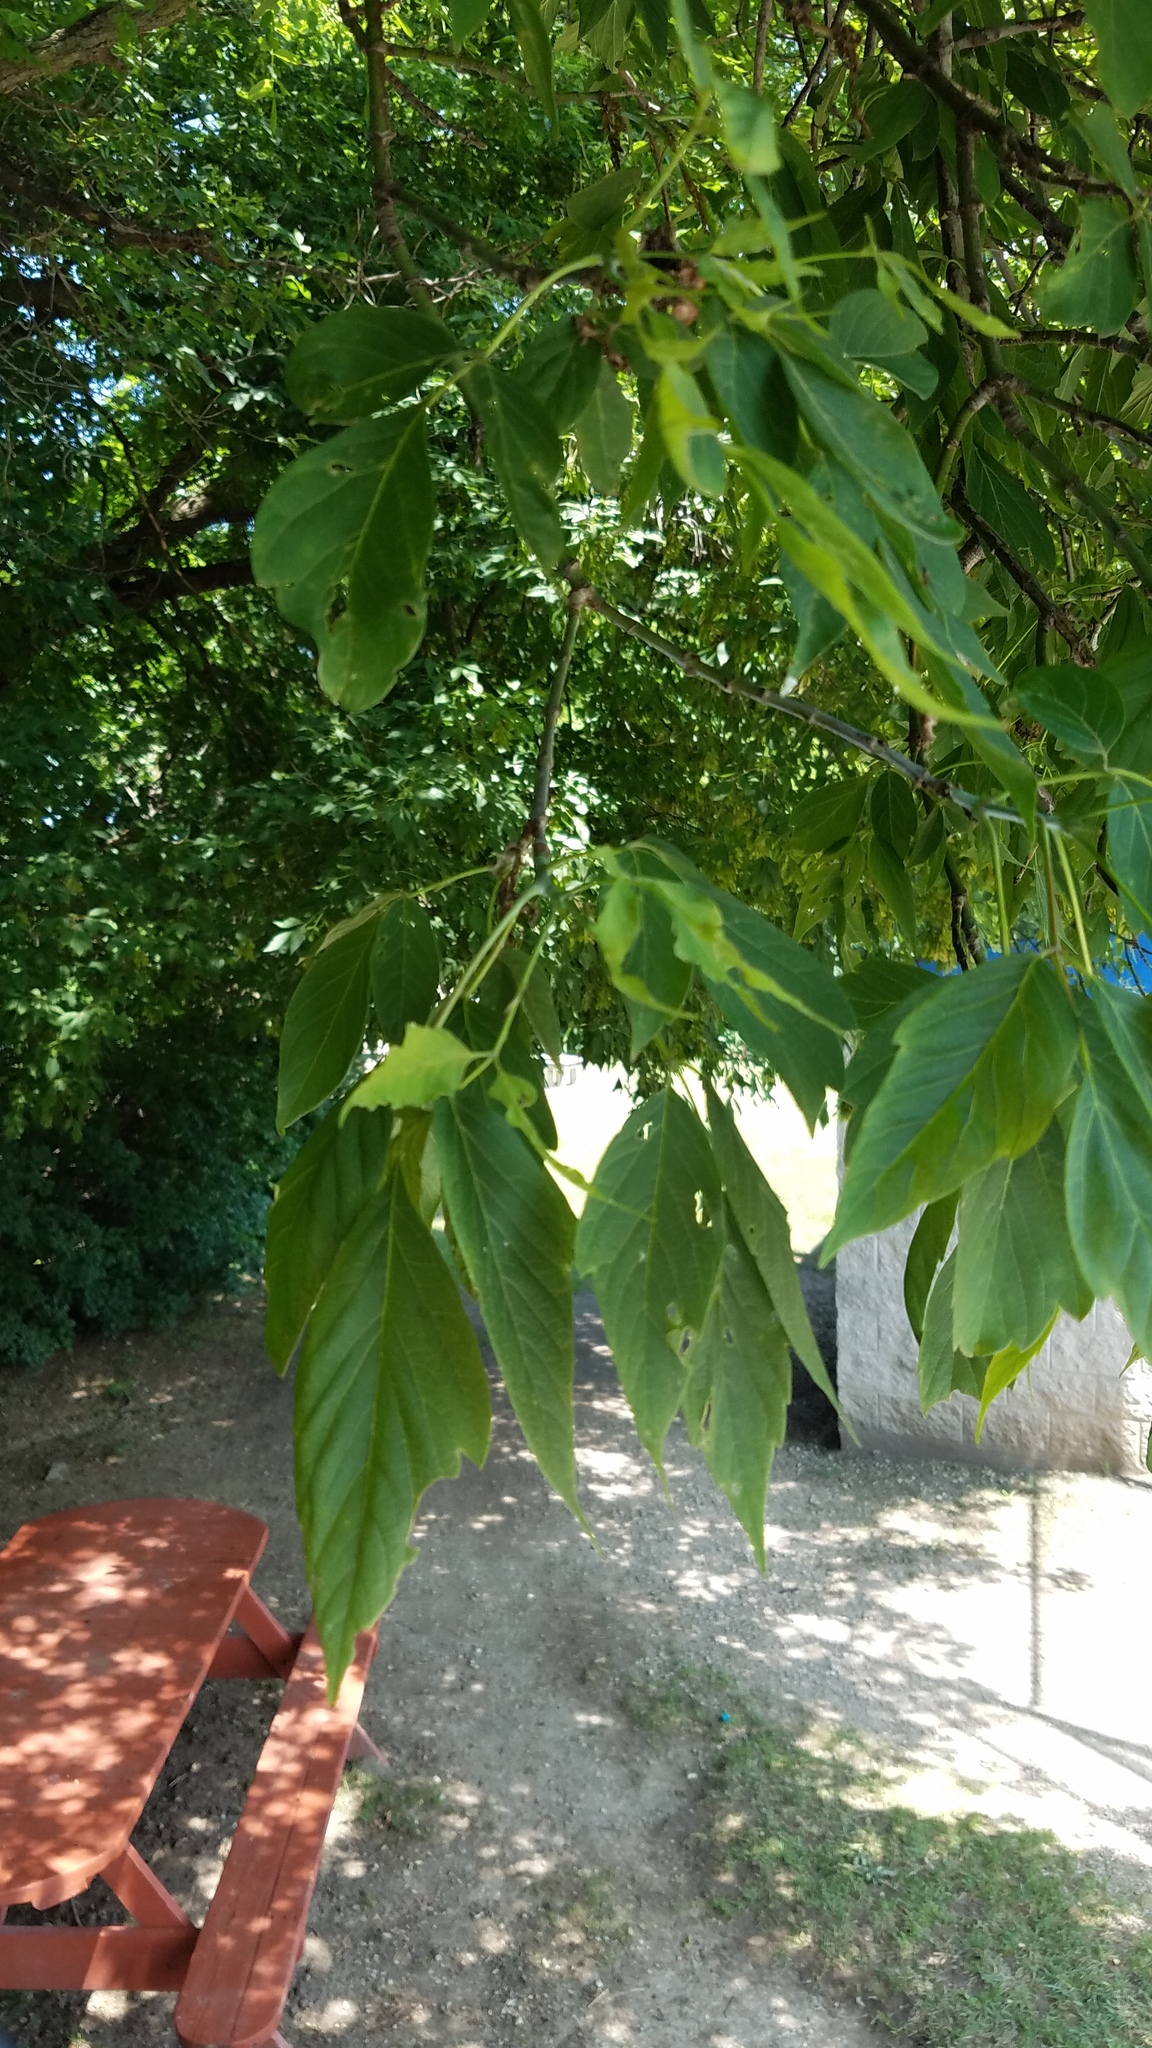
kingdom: Plantae
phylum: Tracheophyta
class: Magnoliopsida
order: Sapindales
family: Sapindaceae
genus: Acer
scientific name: Acer negundo
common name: Ashleaf maple
